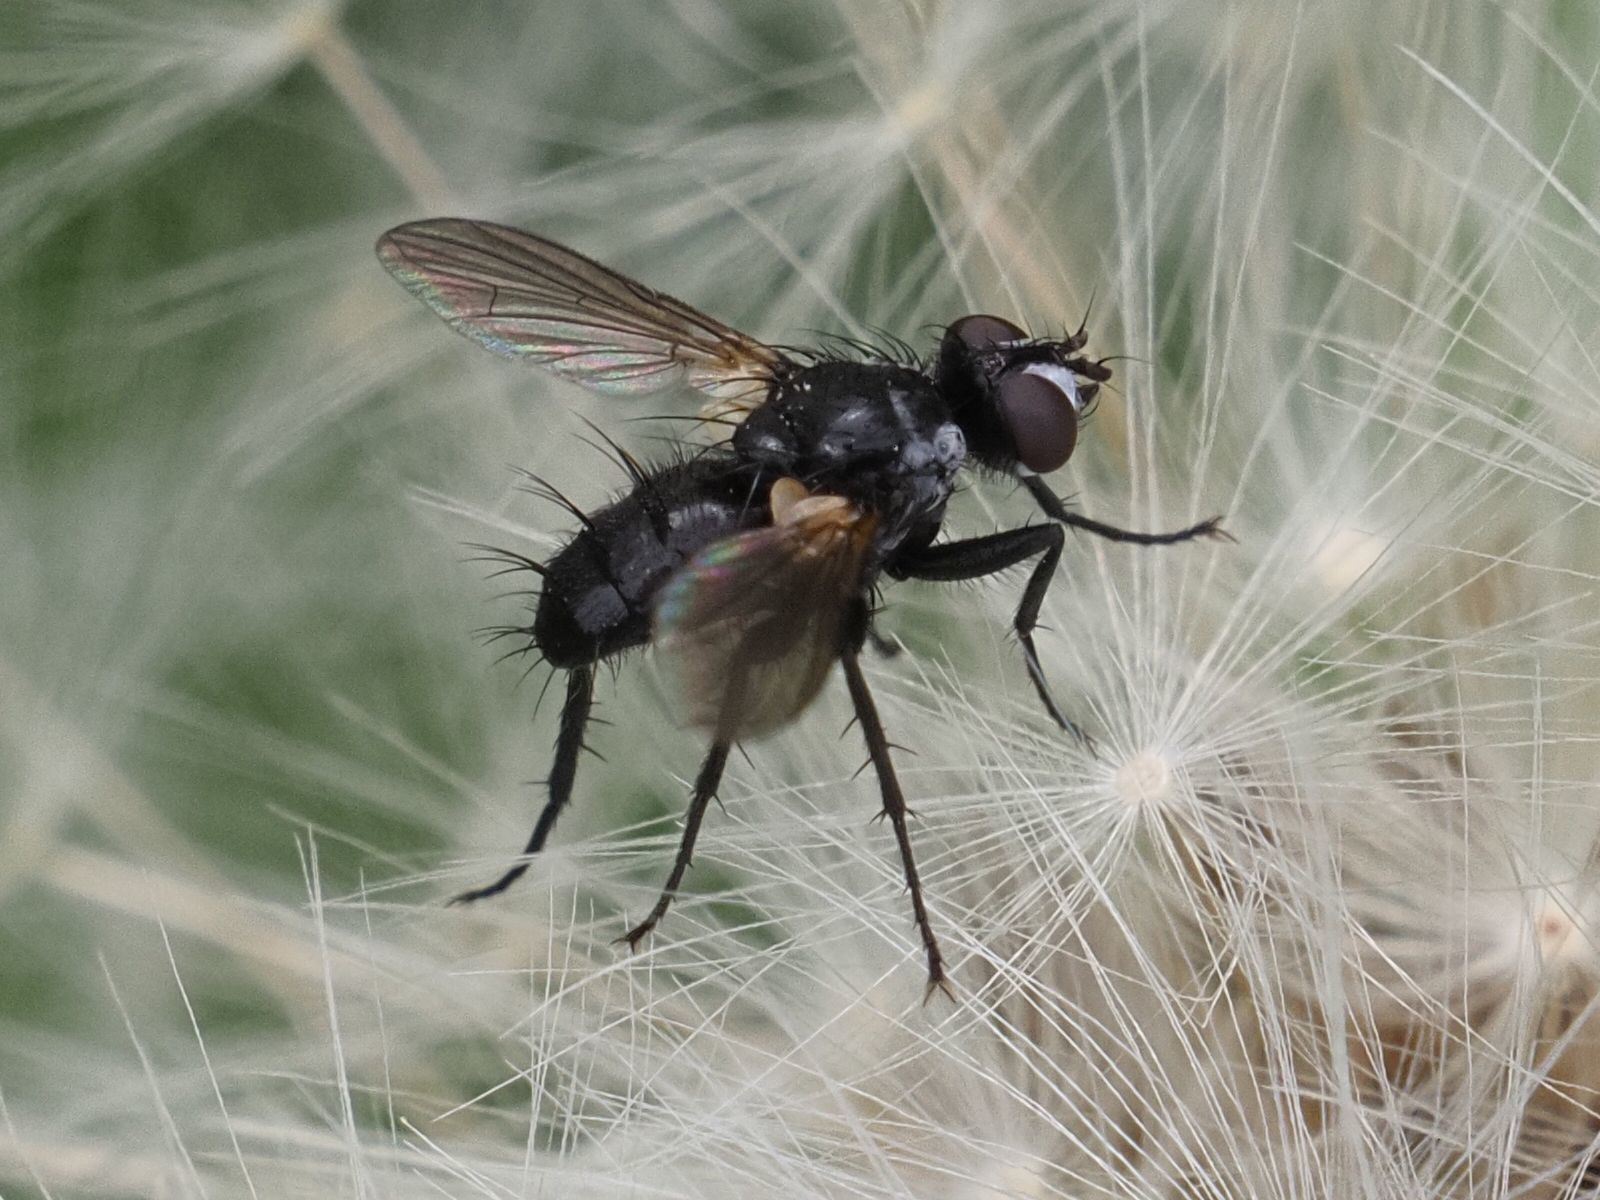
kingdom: Animalia
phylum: Arthropoda
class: Insecta
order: Diptera
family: Tachinidae
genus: Phania
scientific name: Phania funesta
